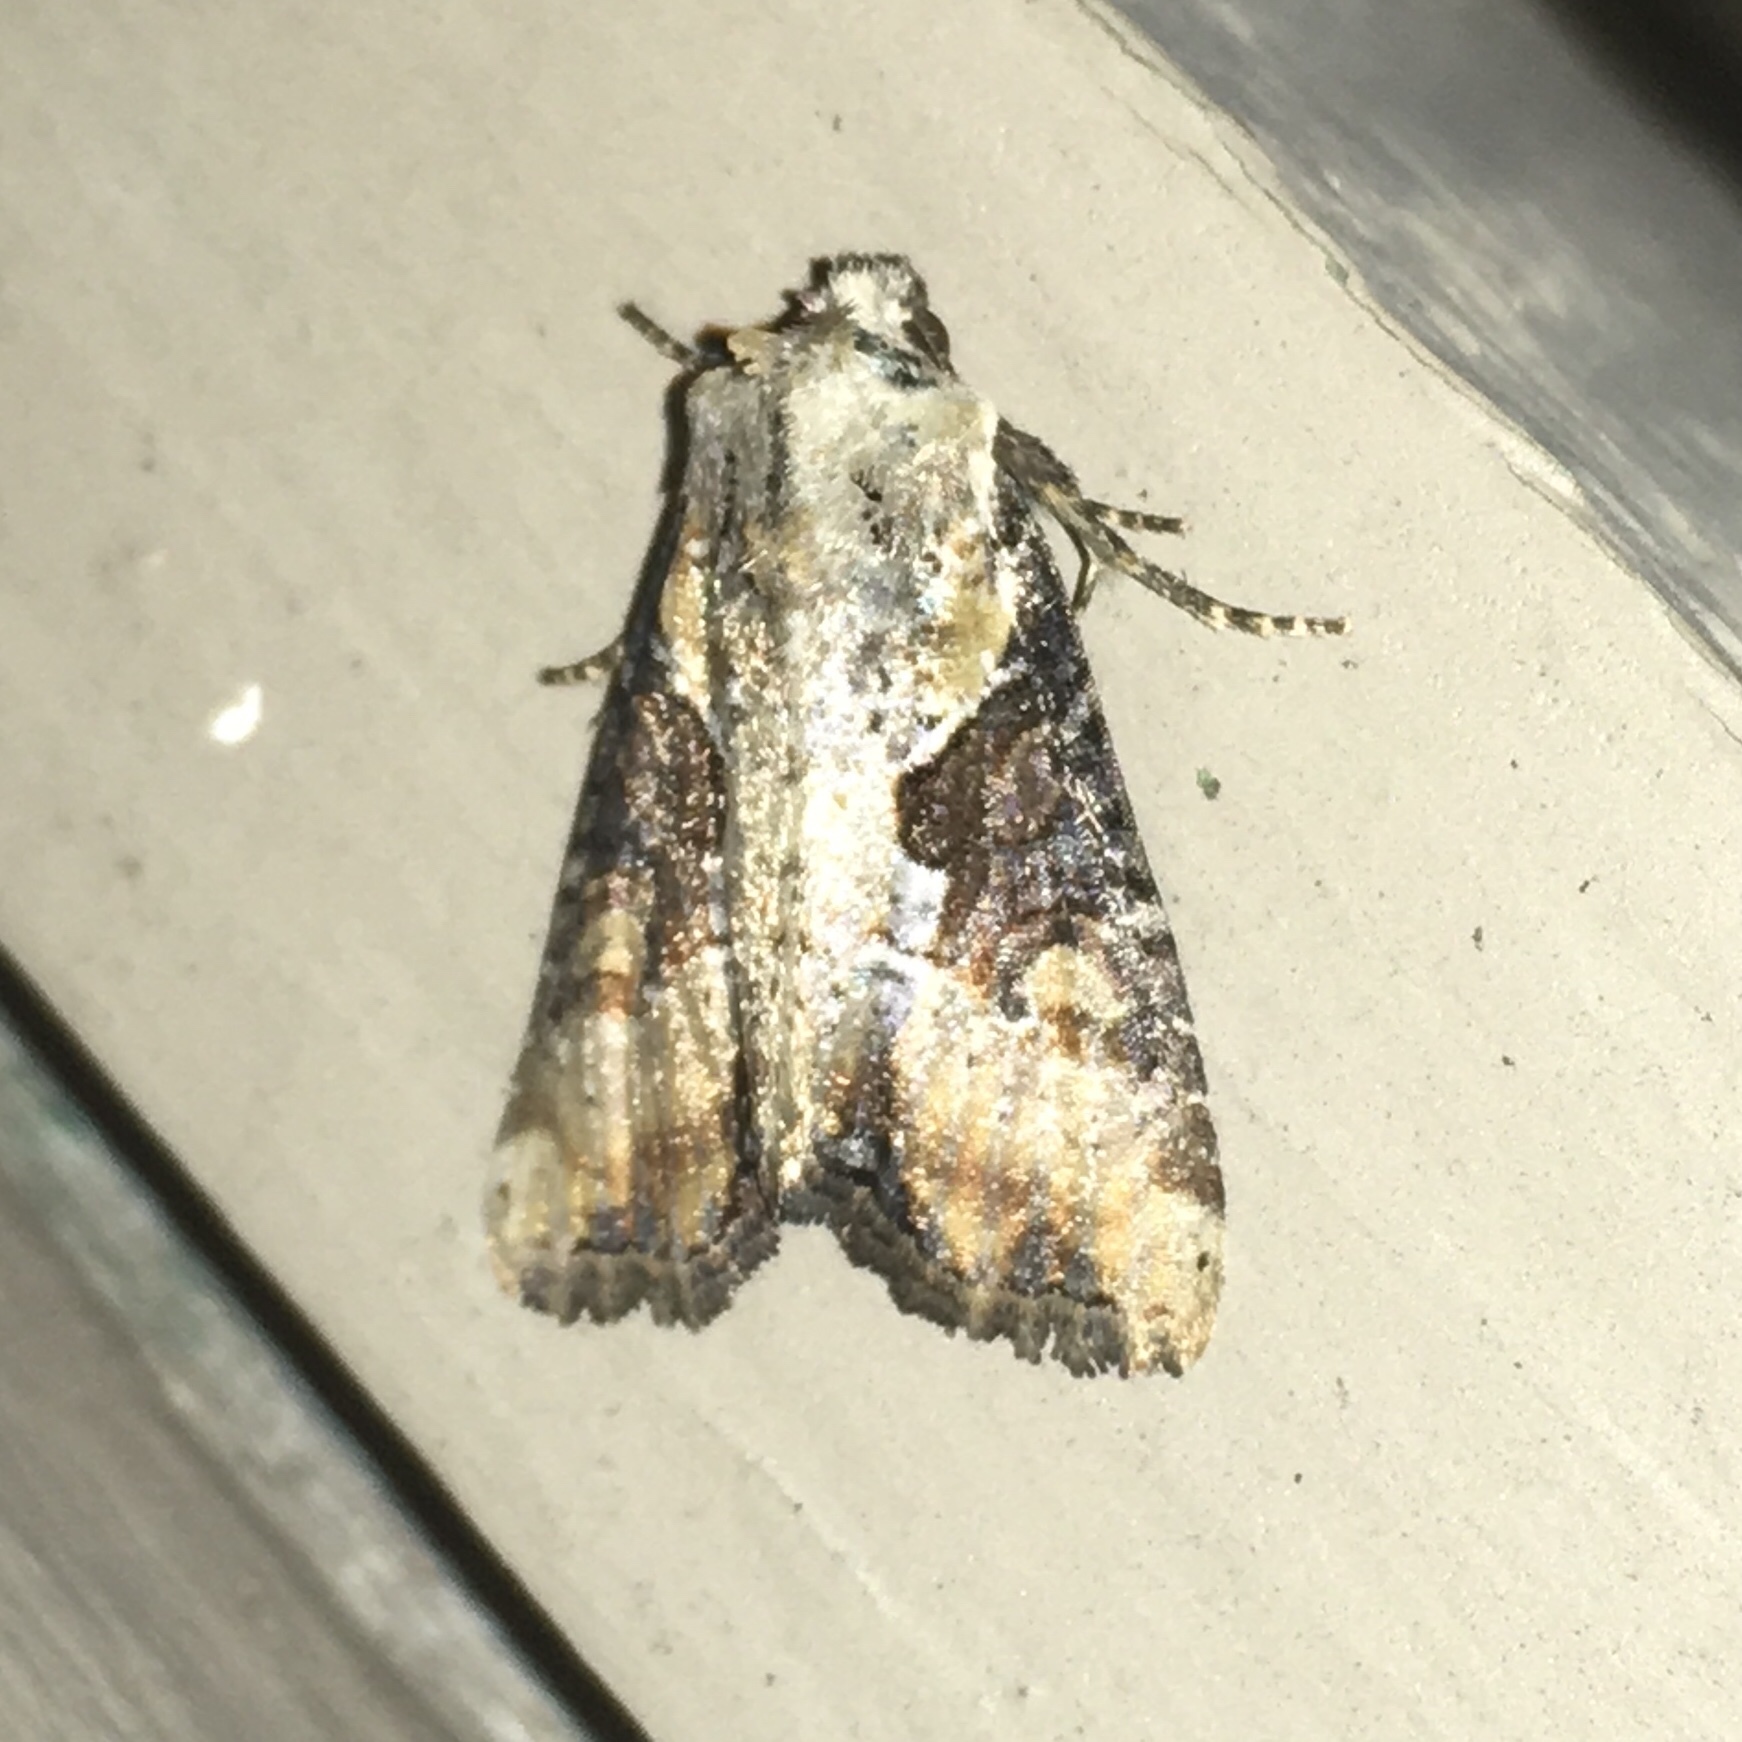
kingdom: Animalia
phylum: Arthropoda
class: Insecta
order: Lepidoptera
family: Noctuidae
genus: Lateroligia
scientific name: Lateroligia ophiogramma
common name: Double lobed
